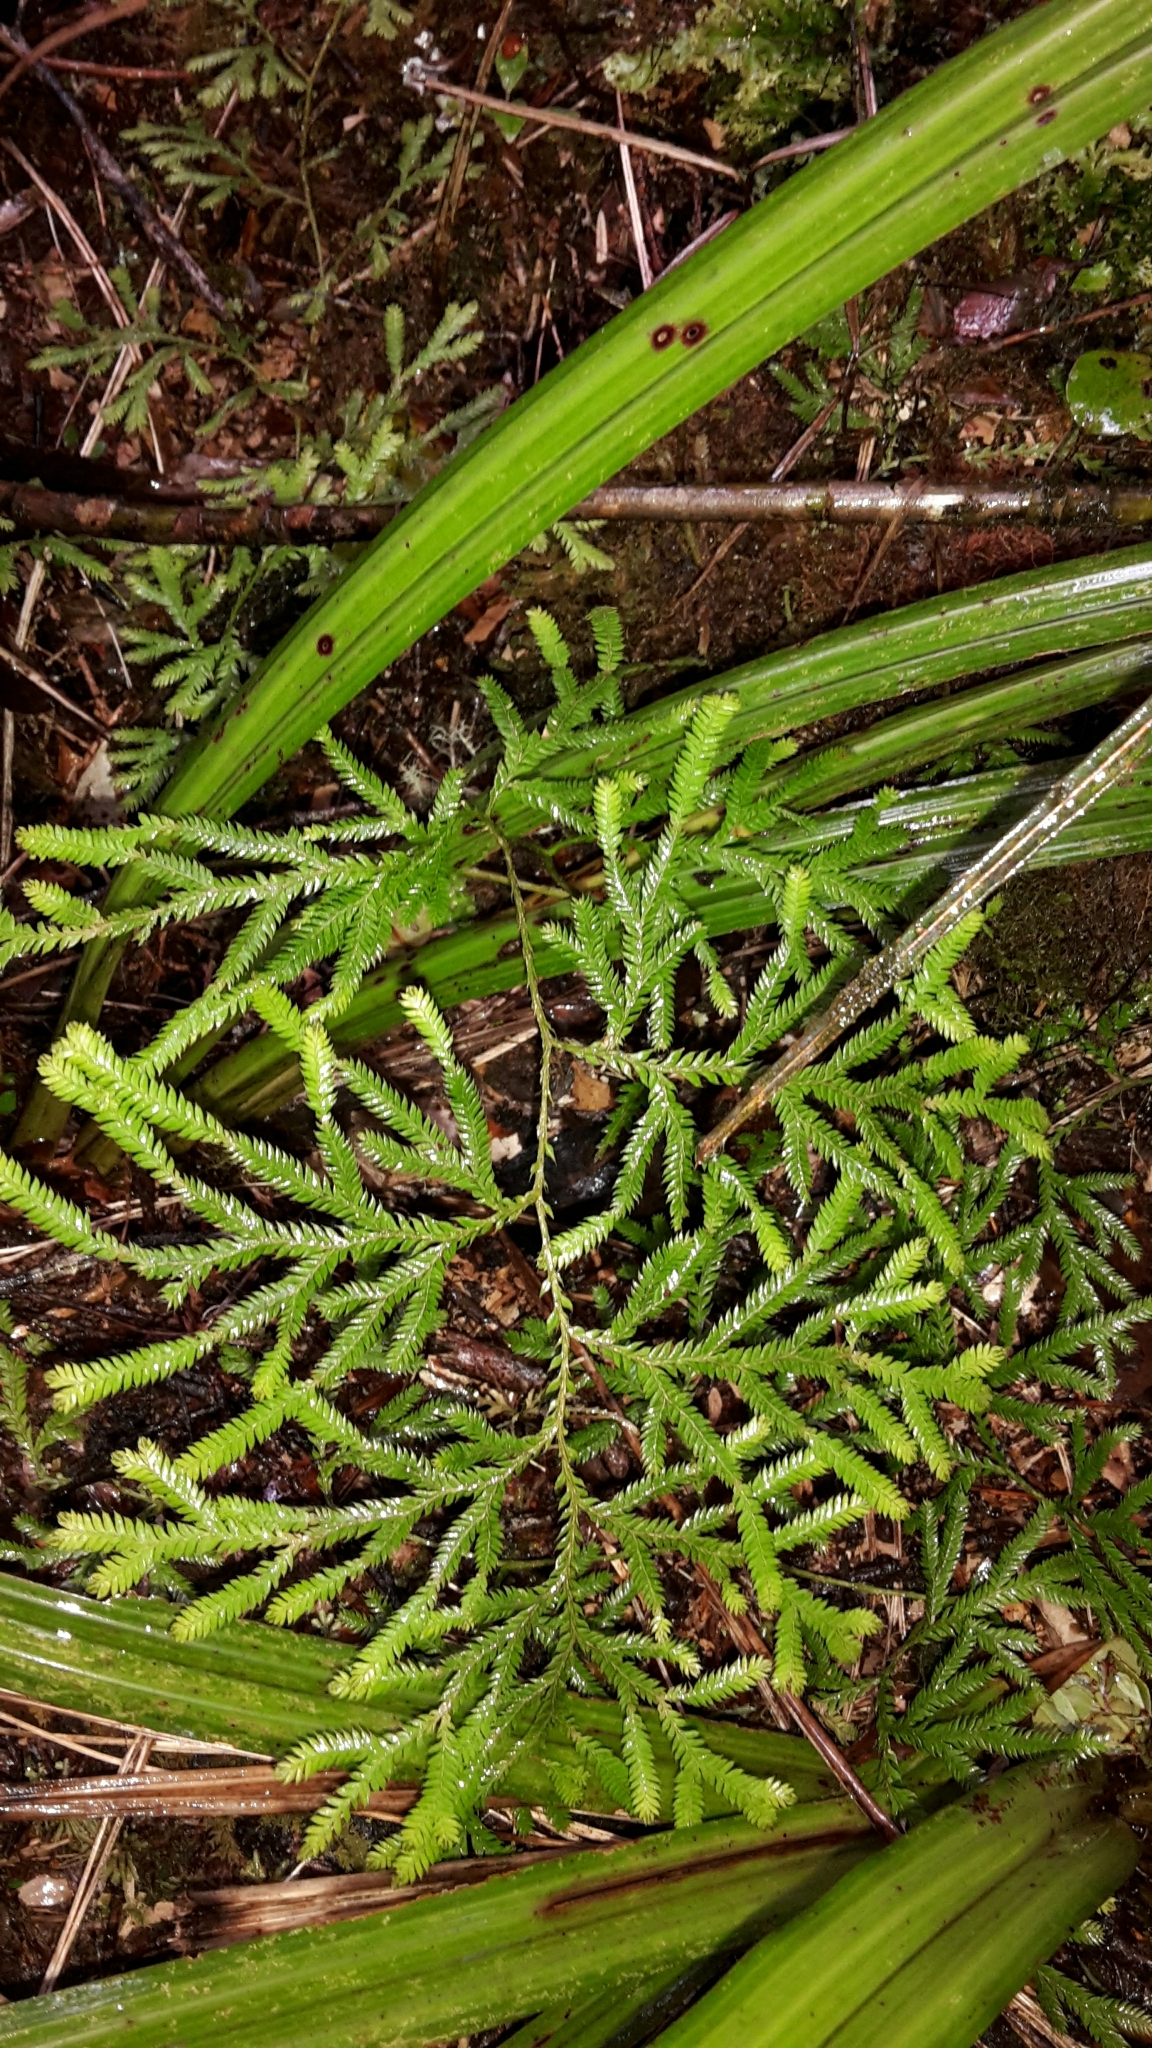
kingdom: Plantae
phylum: Tracheophyta
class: Lycopodiopsida
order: Lycopodiales
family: Lycopodiaceae
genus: Lycopodium
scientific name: Lycopodium volubile
